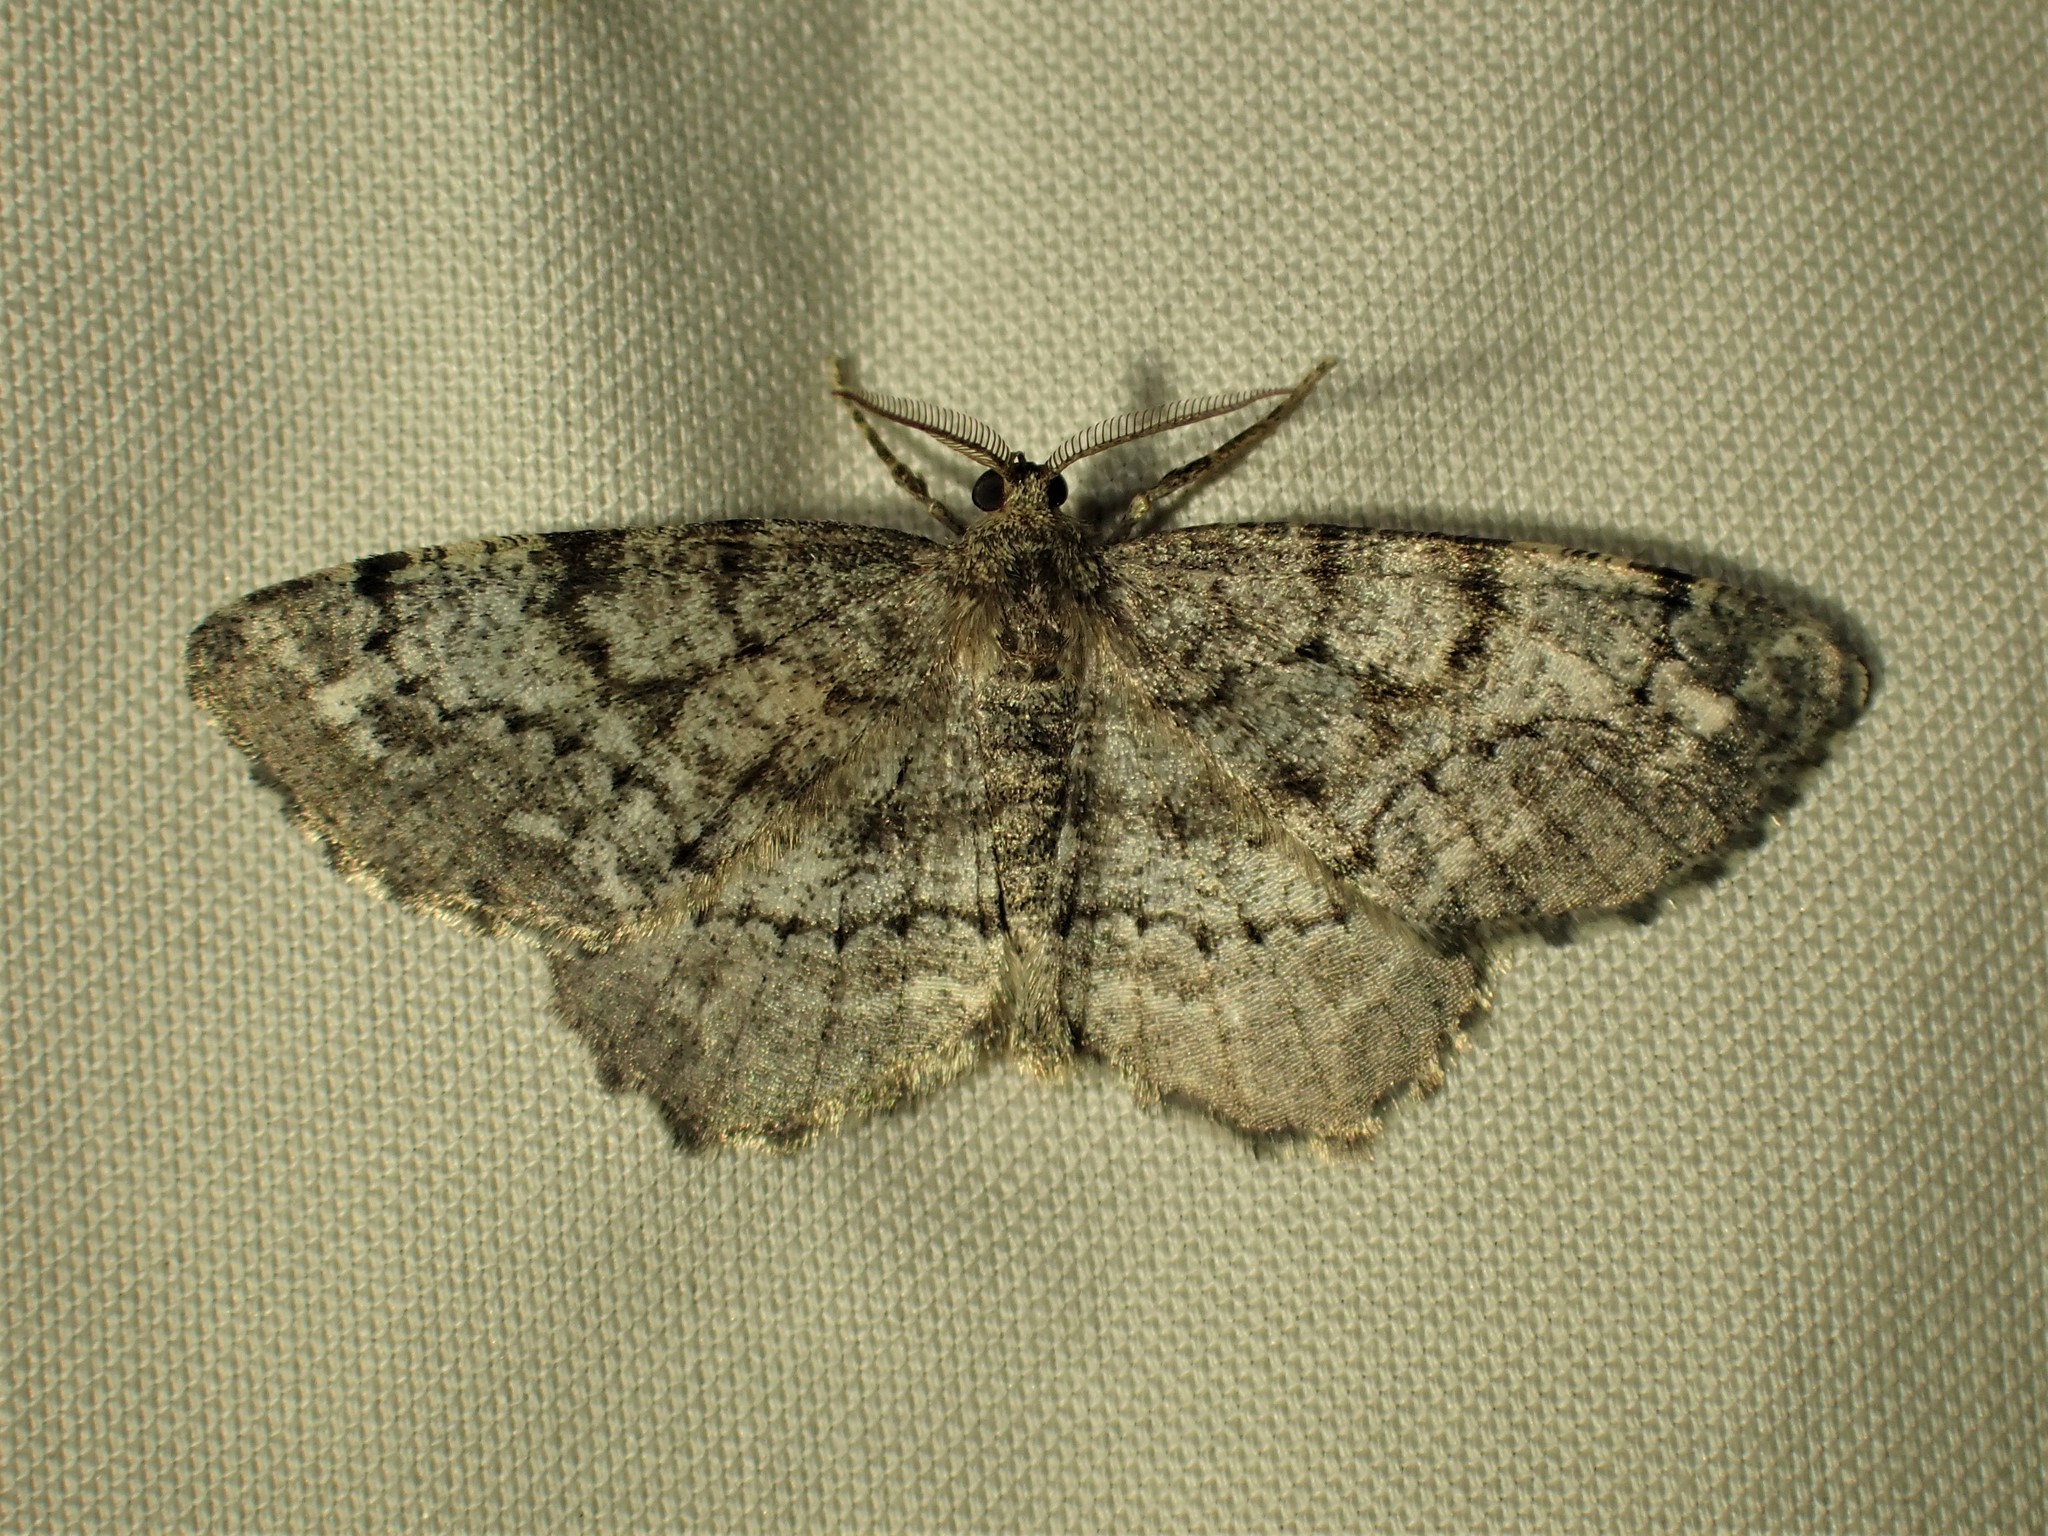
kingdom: Animalia
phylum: Arthropoda
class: Insecta
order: Lepidoptera
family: Geometridae
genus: Hypagyrtis
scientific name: Hypagyrtis piniata
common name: Pine measuringworm
